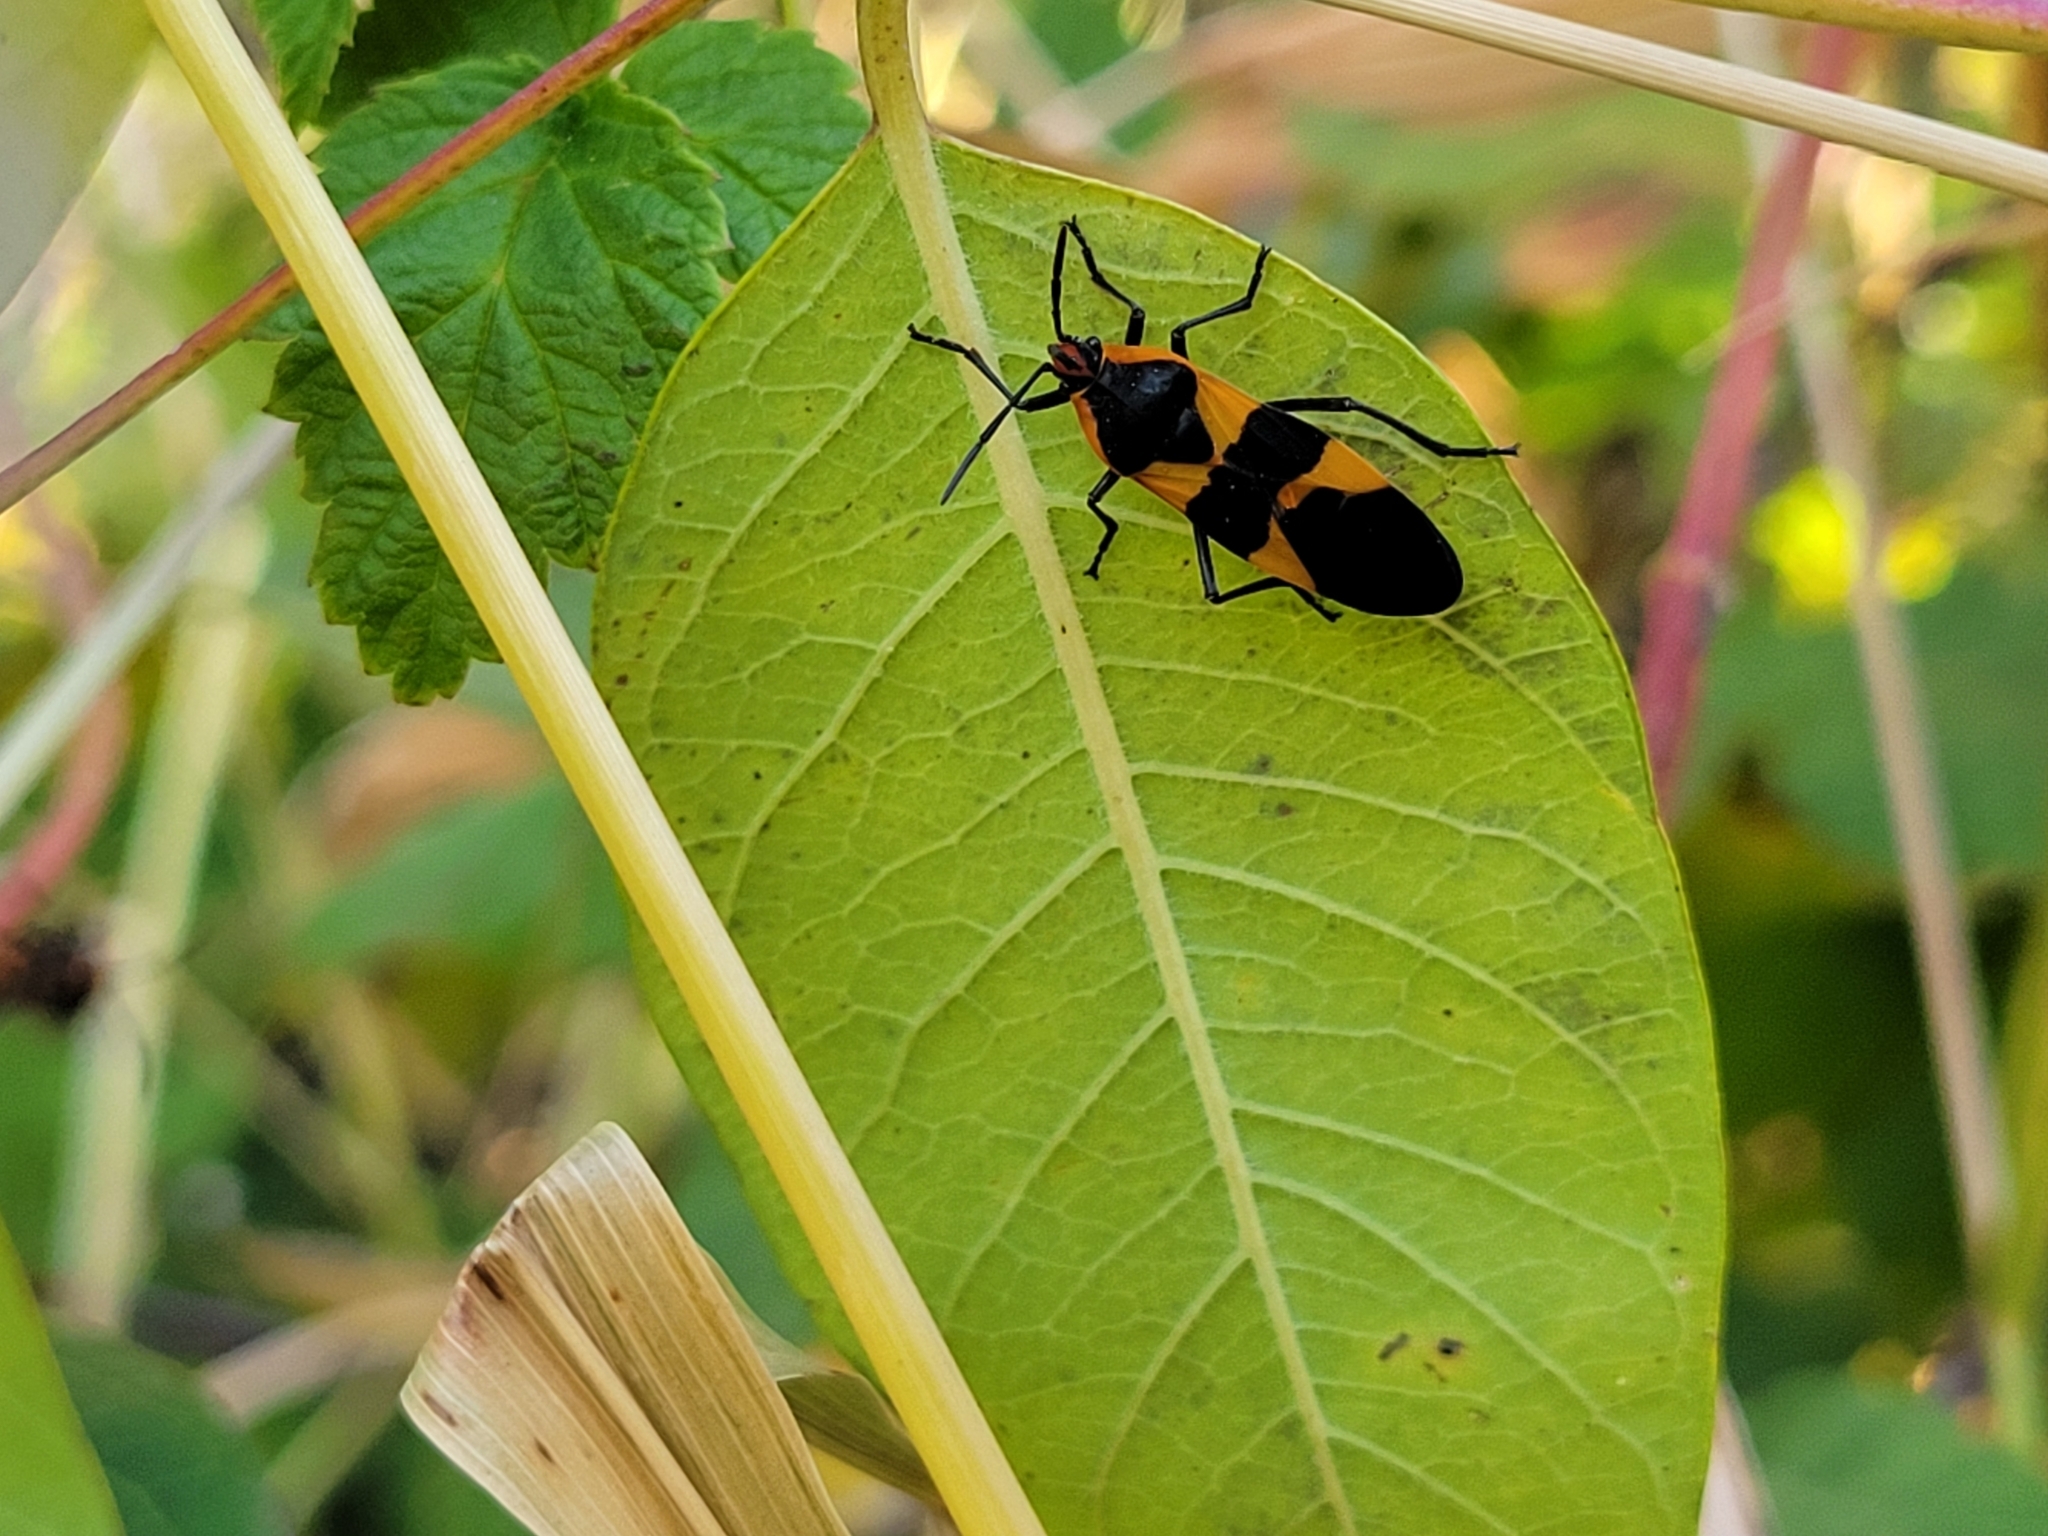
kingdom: Animalia
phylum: Arthropoda
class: Insecta
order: Hemiptera
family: Lygaeidae
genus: Oncopeltus
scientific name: Oncopeltus fasciatus
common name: Large milkweed bug
